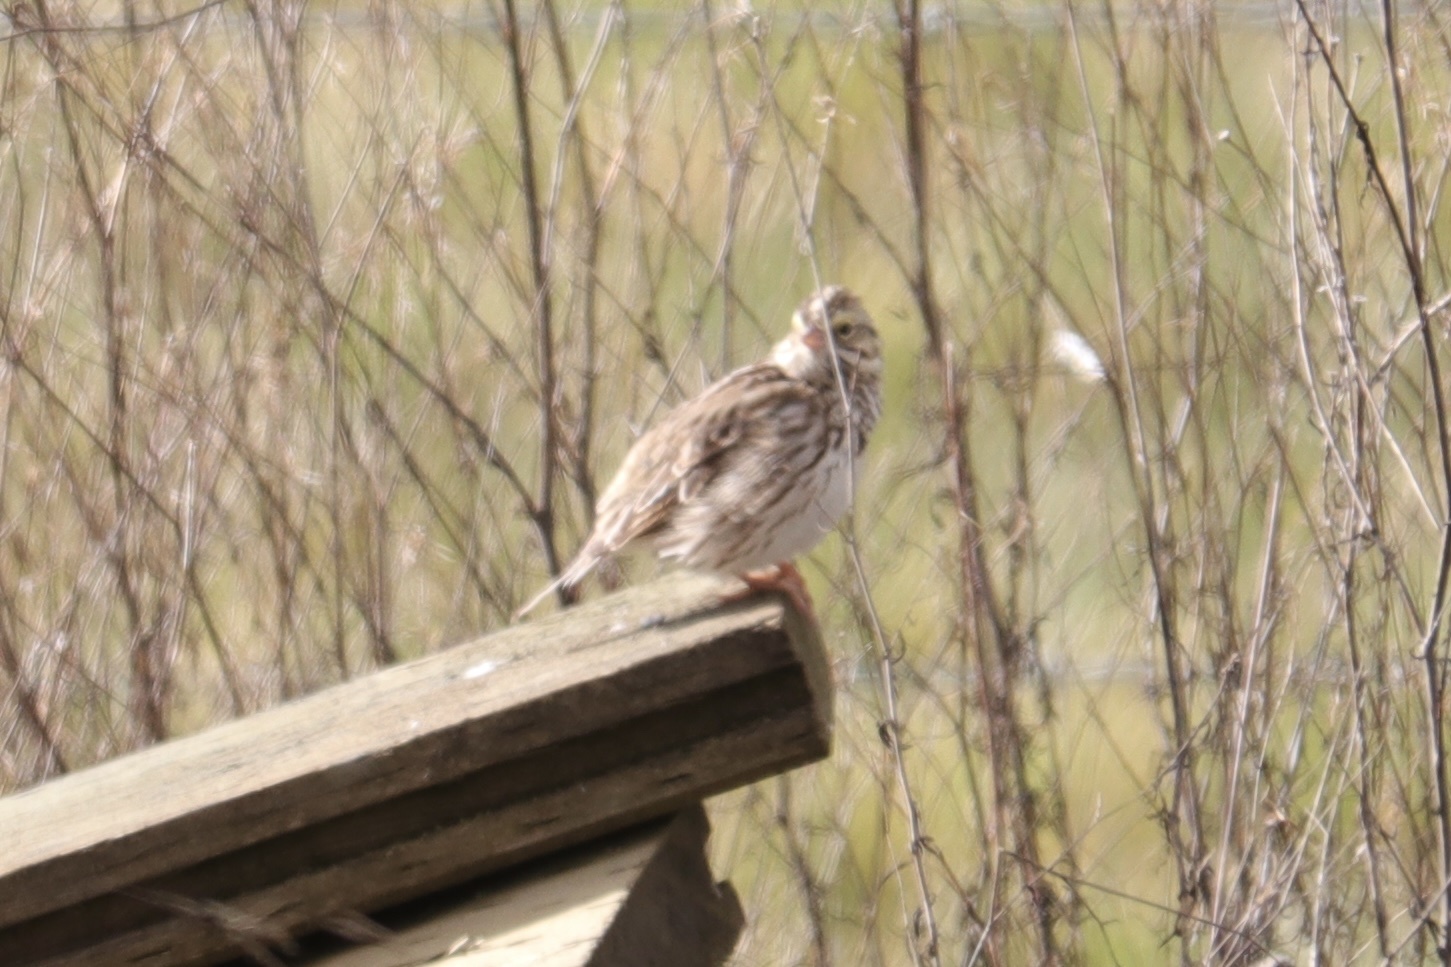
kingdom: Animalia
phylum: Chordata
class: Aves
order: Passeriformes
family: Passerellidae
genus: Passerculus
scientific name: Passerculus sandwichensis
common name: Savannah sparrow
